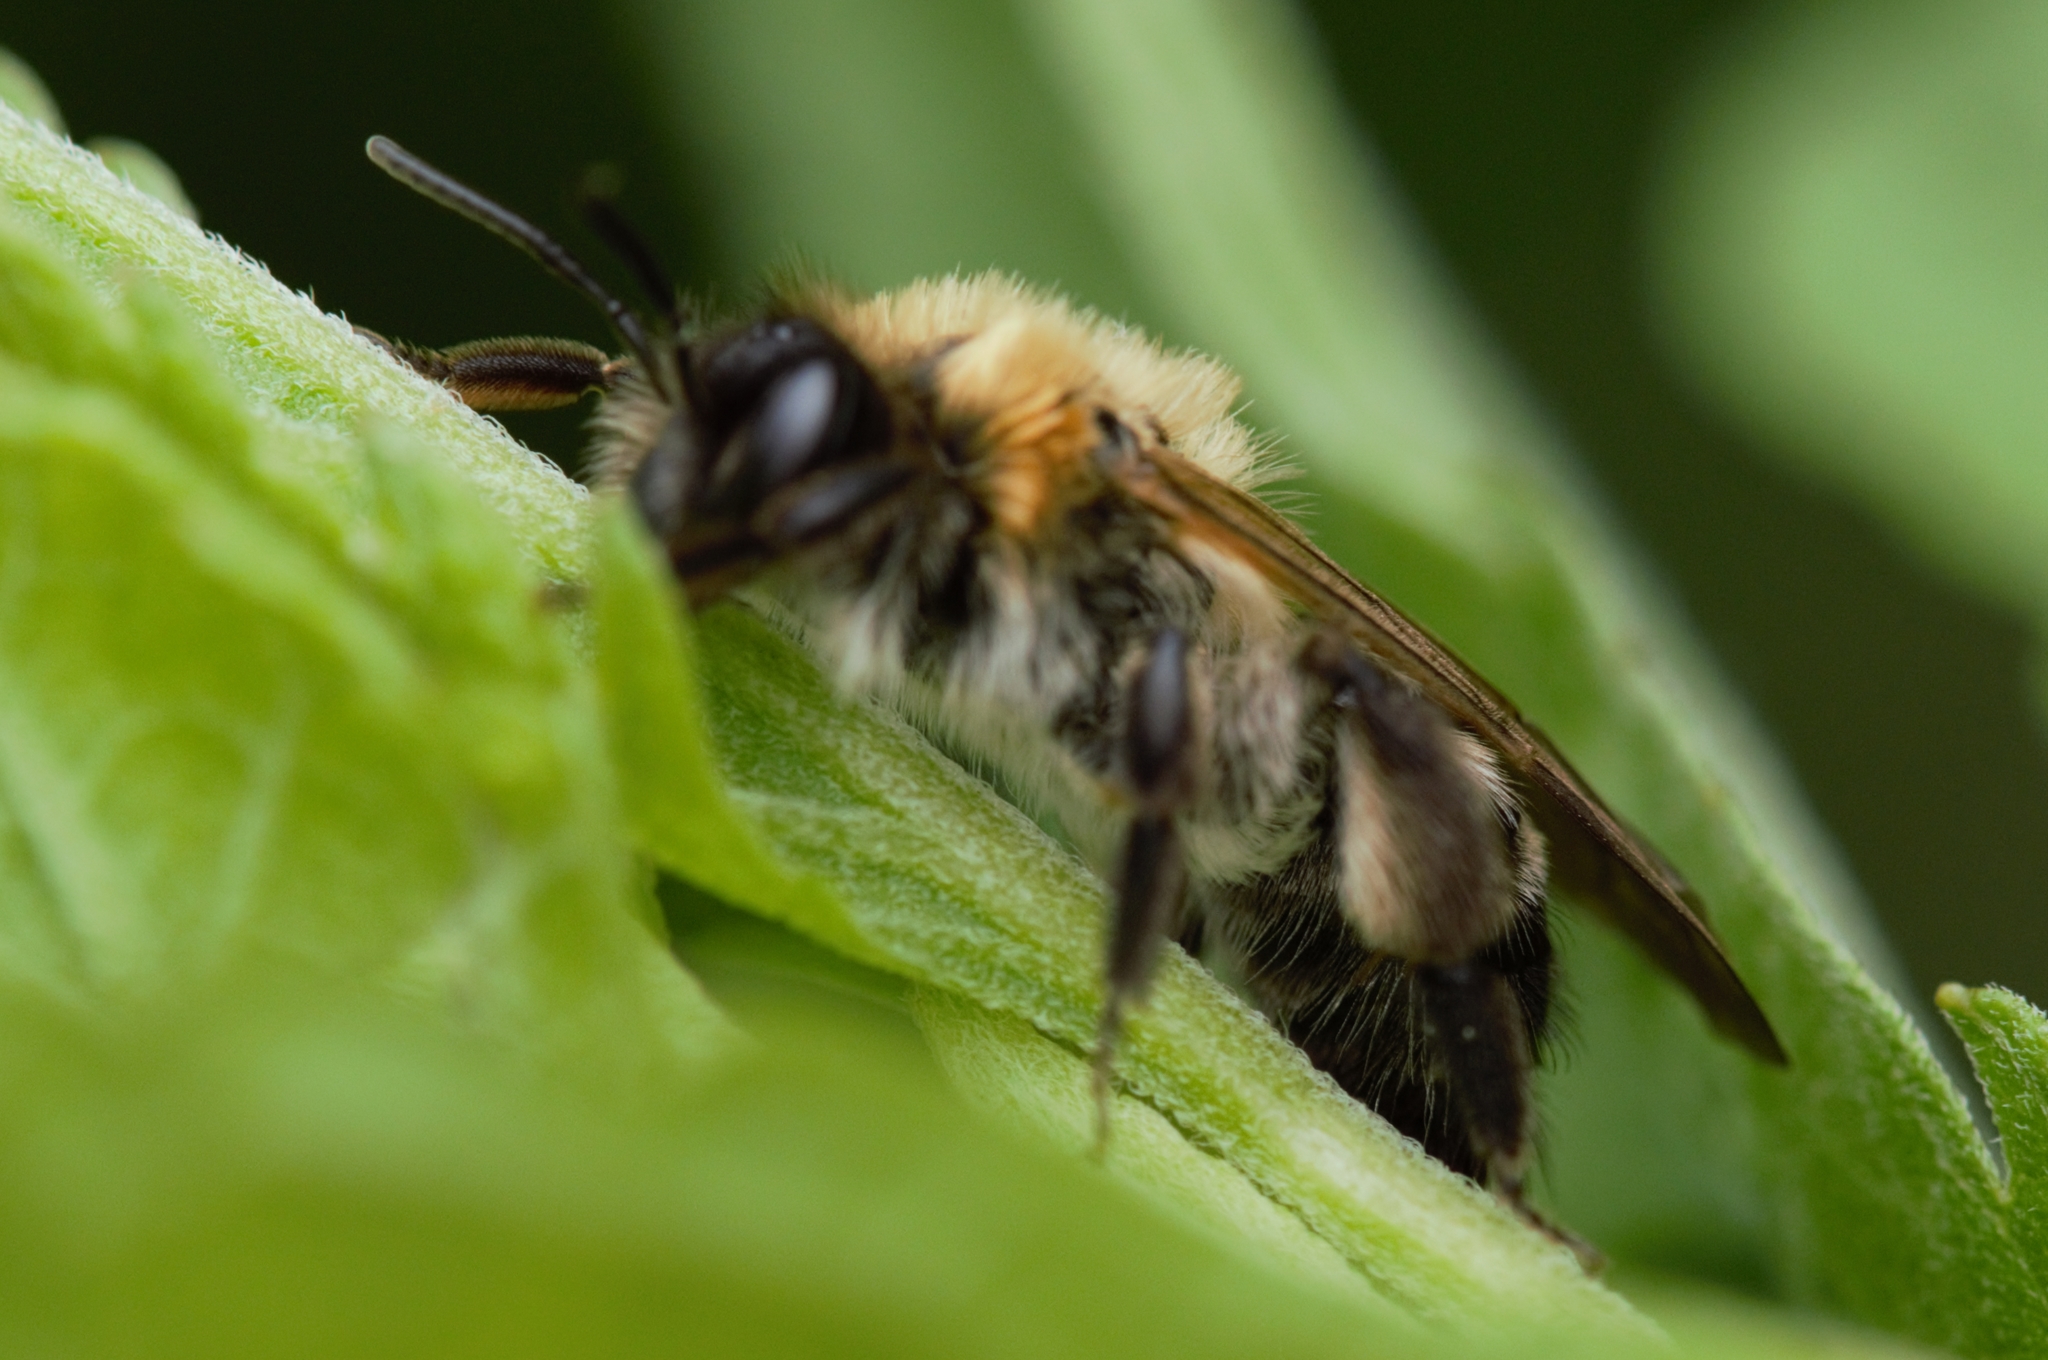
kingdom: Animalia
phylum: Arthropoda
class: Insecta
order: Hymenoptera
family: Andrenidae
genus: Andrena
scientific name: Andrena nitida
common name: Grey-patched mining bee
